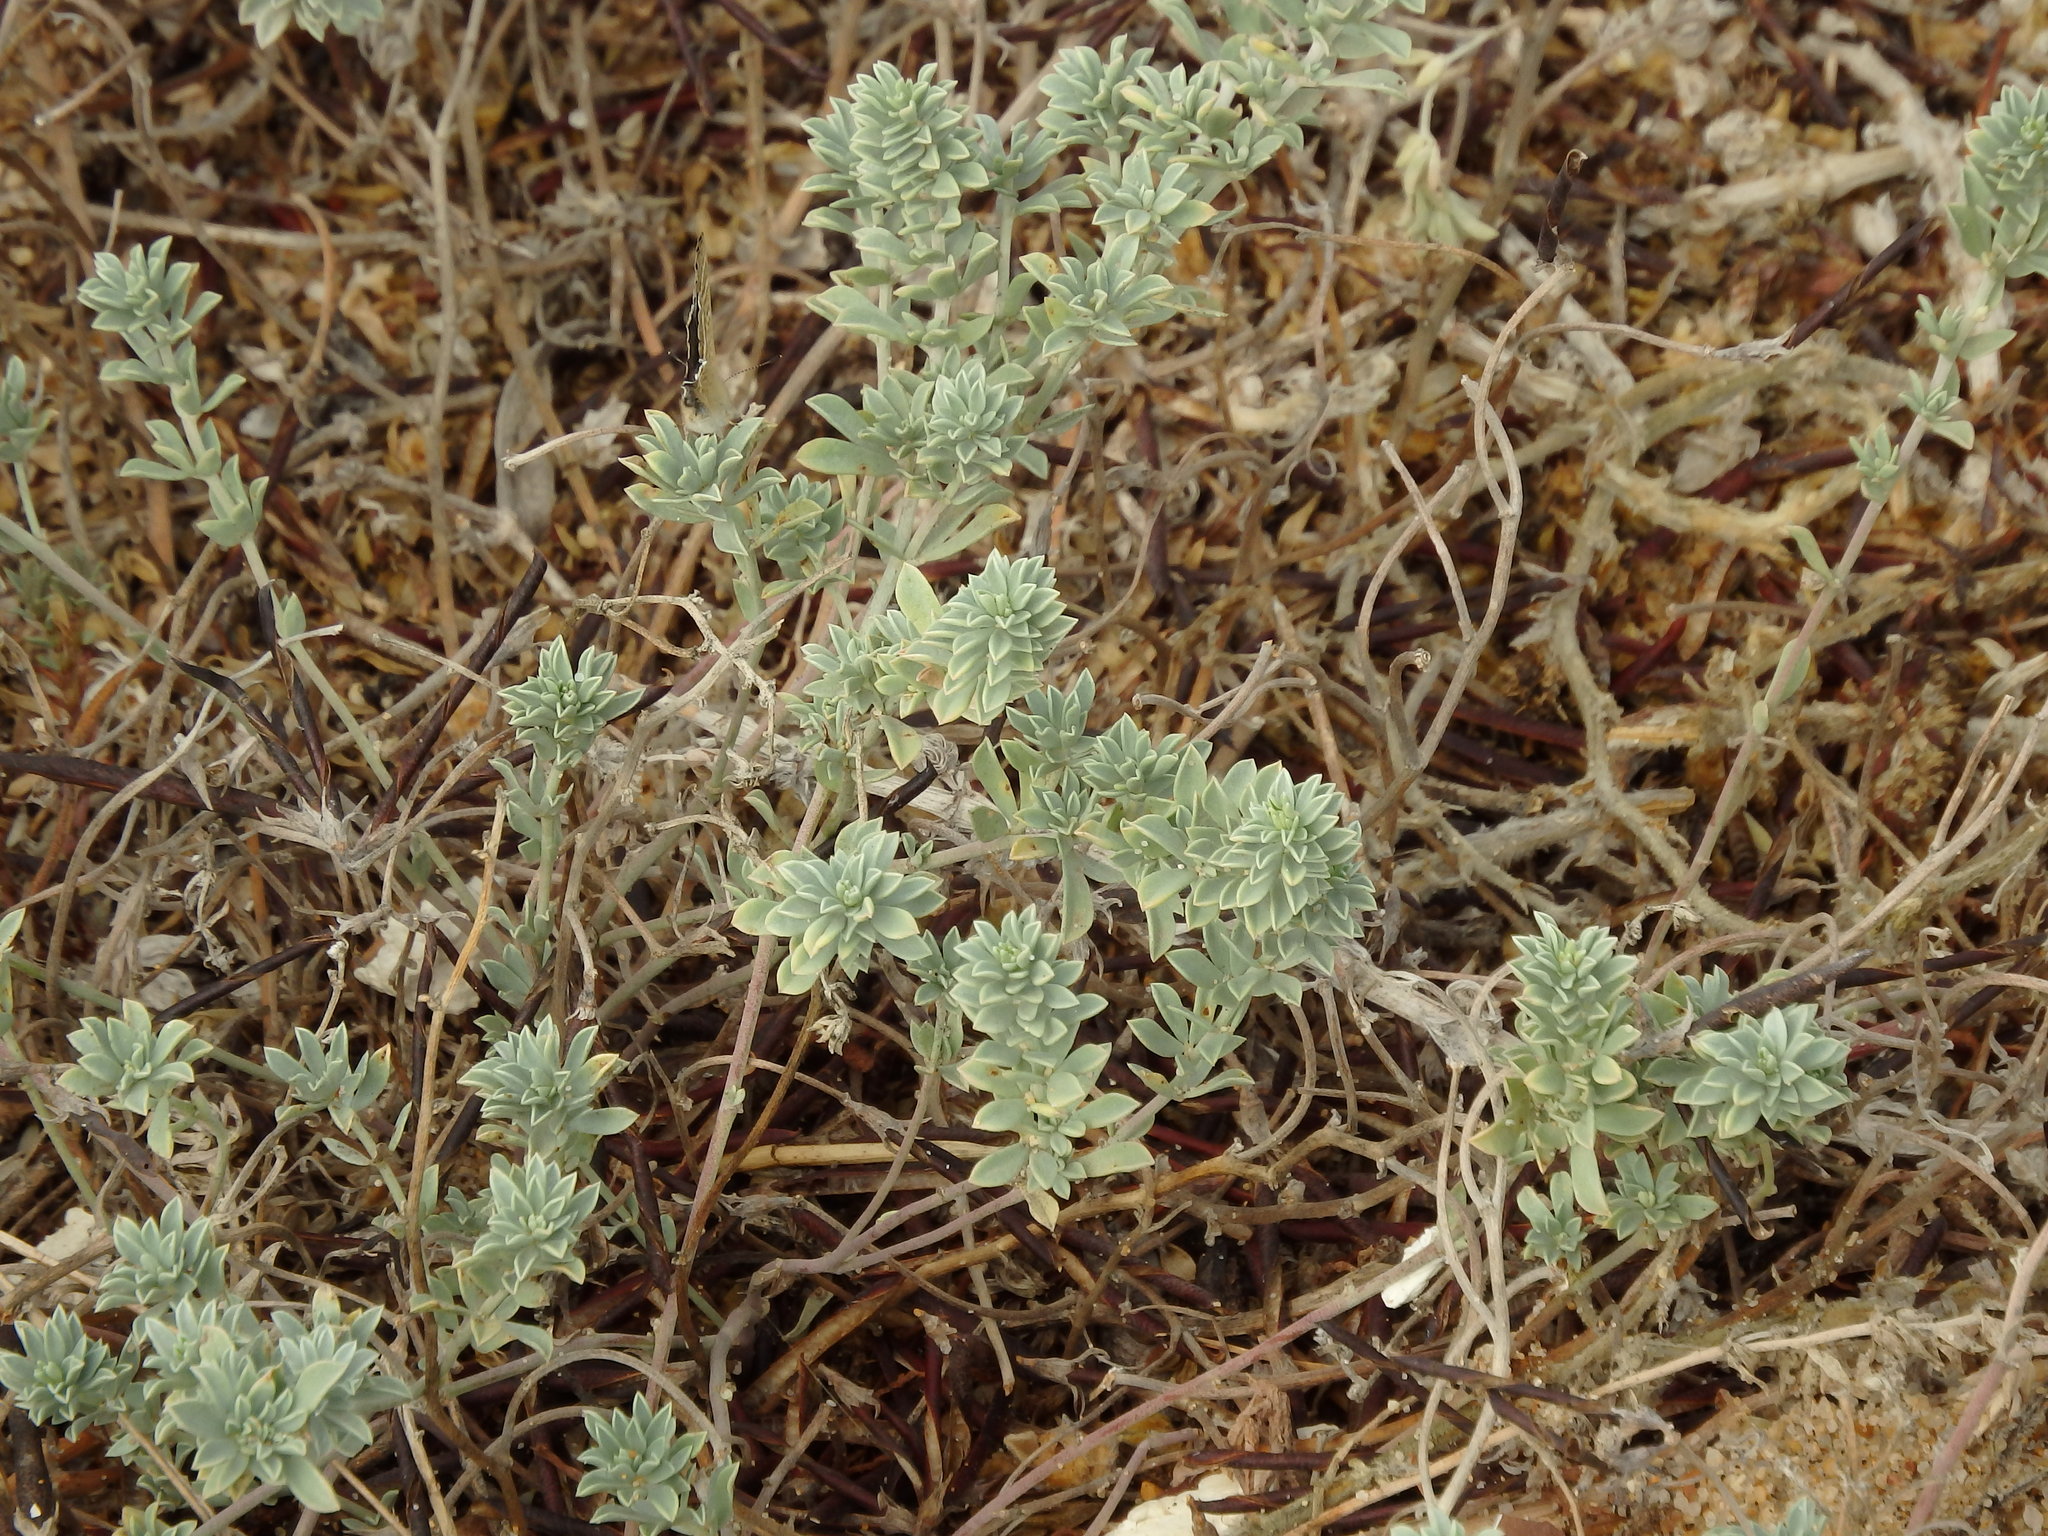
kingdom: Plantae
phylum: Tracheophyta
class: Magnoliopsida
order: Fabales
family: Fabaceae
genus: Lotus
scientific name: Lotus creticus
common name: Cretan bird's-foot trefoil
